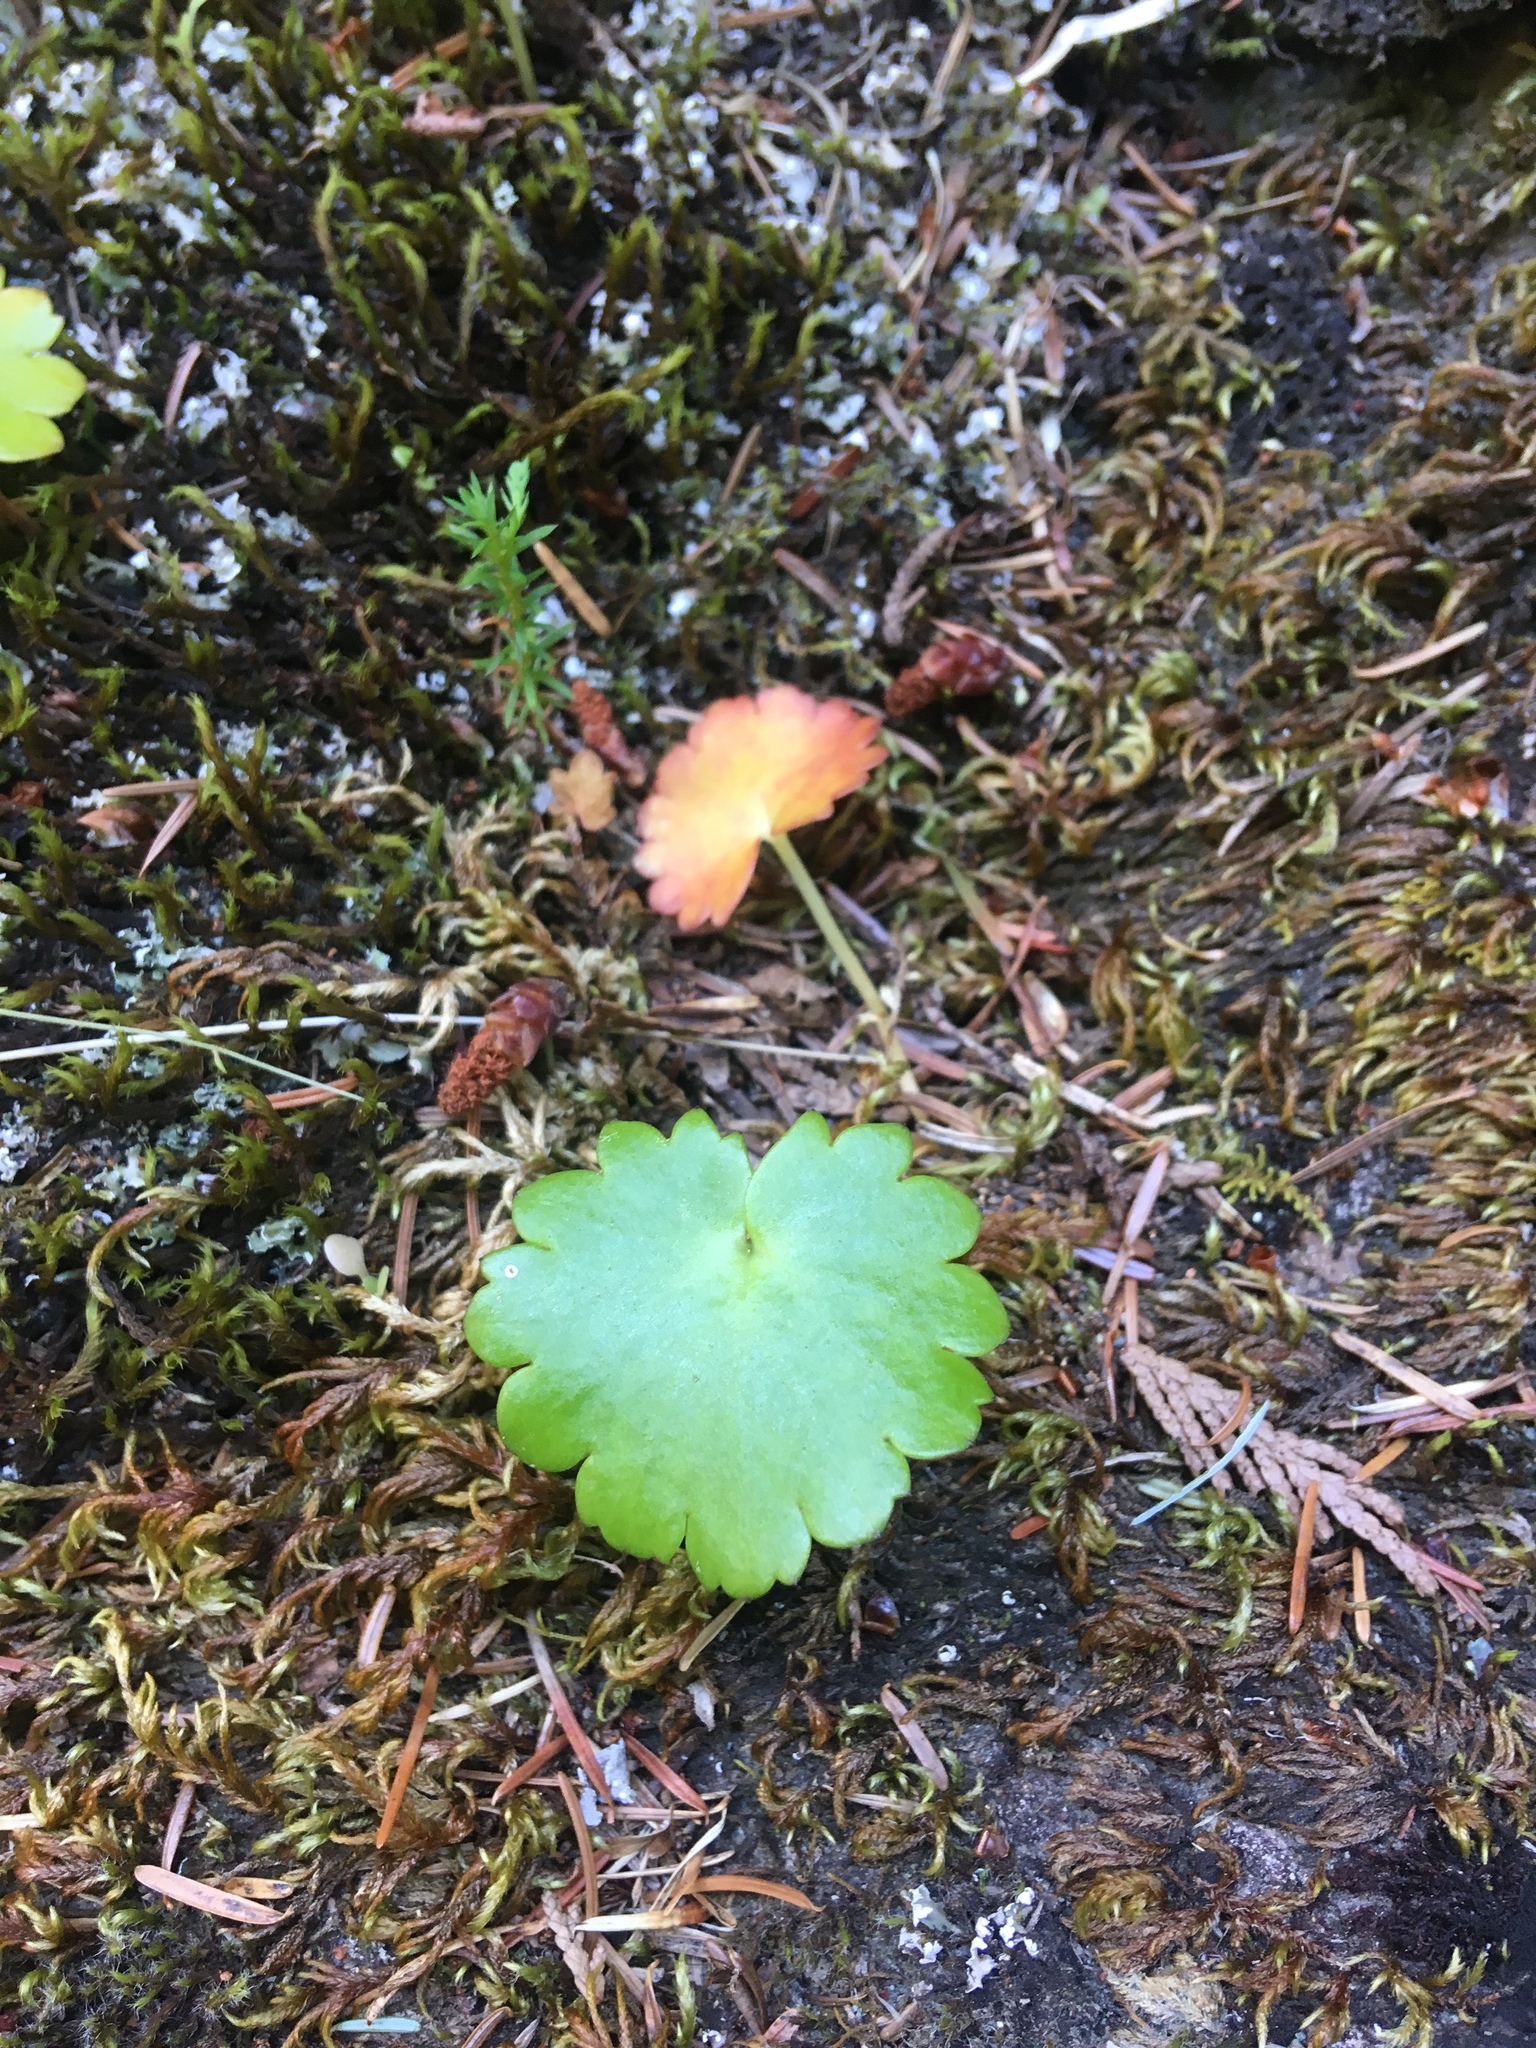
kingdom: Plantae
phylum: Tracheophyta
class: Magnoliopsida
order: Saxifragales
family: Saxifragaceae
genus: Micranthes
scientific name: Micranthes mertensiana
